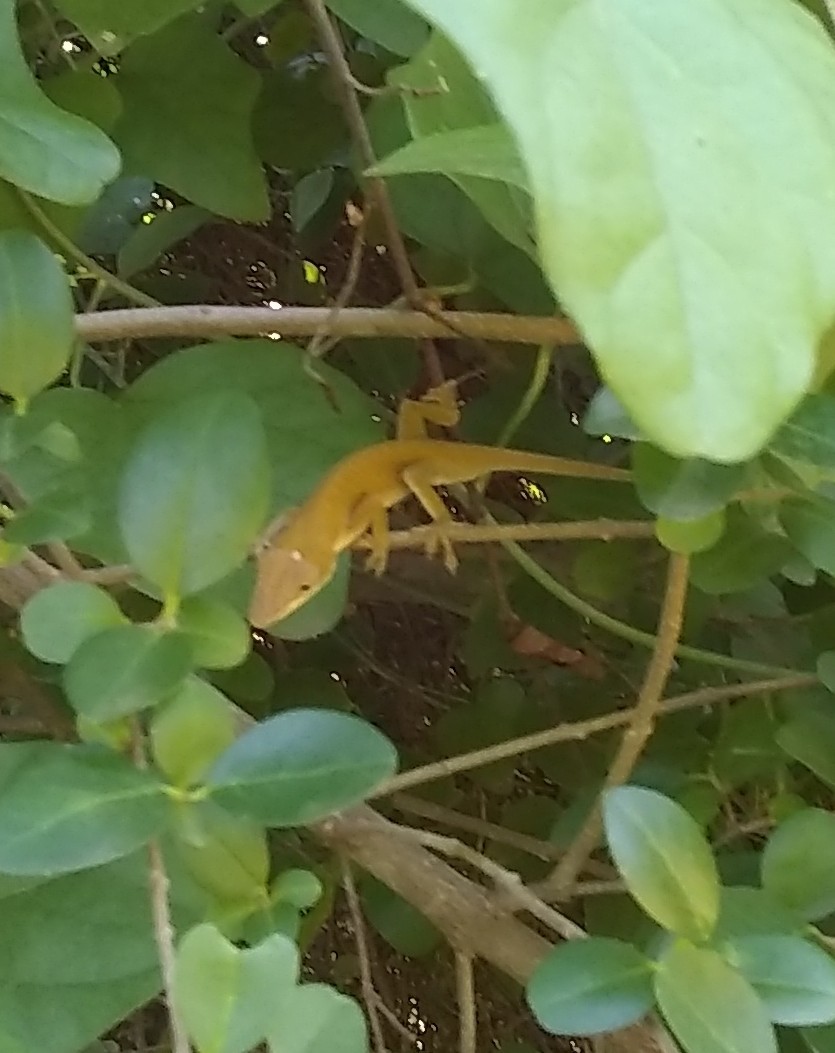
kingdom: Animalia
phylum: Chordata
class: Squamata
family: Dactyloidae
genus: Anolis
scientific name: Anolis carolinensis
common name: Green anole
